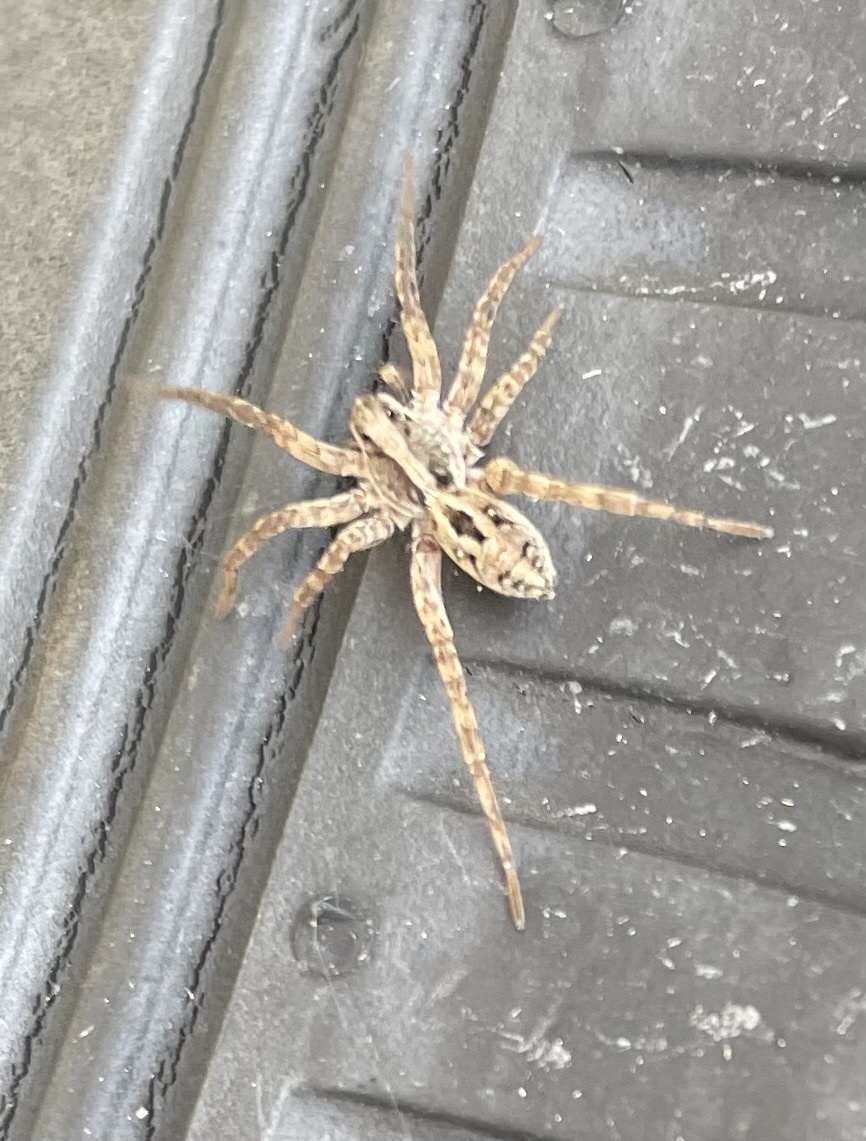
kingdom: Animalia
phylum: Arthropoda
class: Arachnida
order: Araneae
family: Lycosidae
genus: Schizocosa
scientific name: Schizocosa avida
